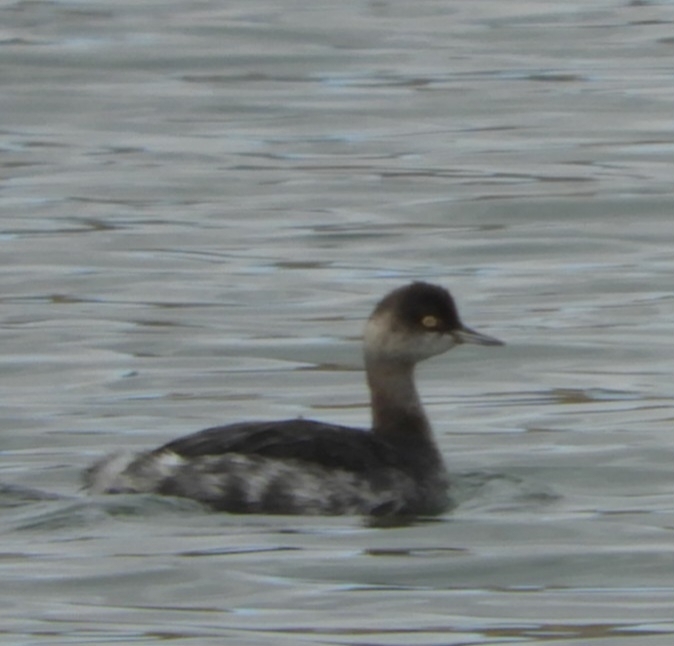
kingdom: Animalia
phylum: Chordata
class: Aves
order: Podicipediformes
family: Podicipedidae
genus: Podiceps
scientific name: Podiceps nigricollis
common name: Black-necked grebe
